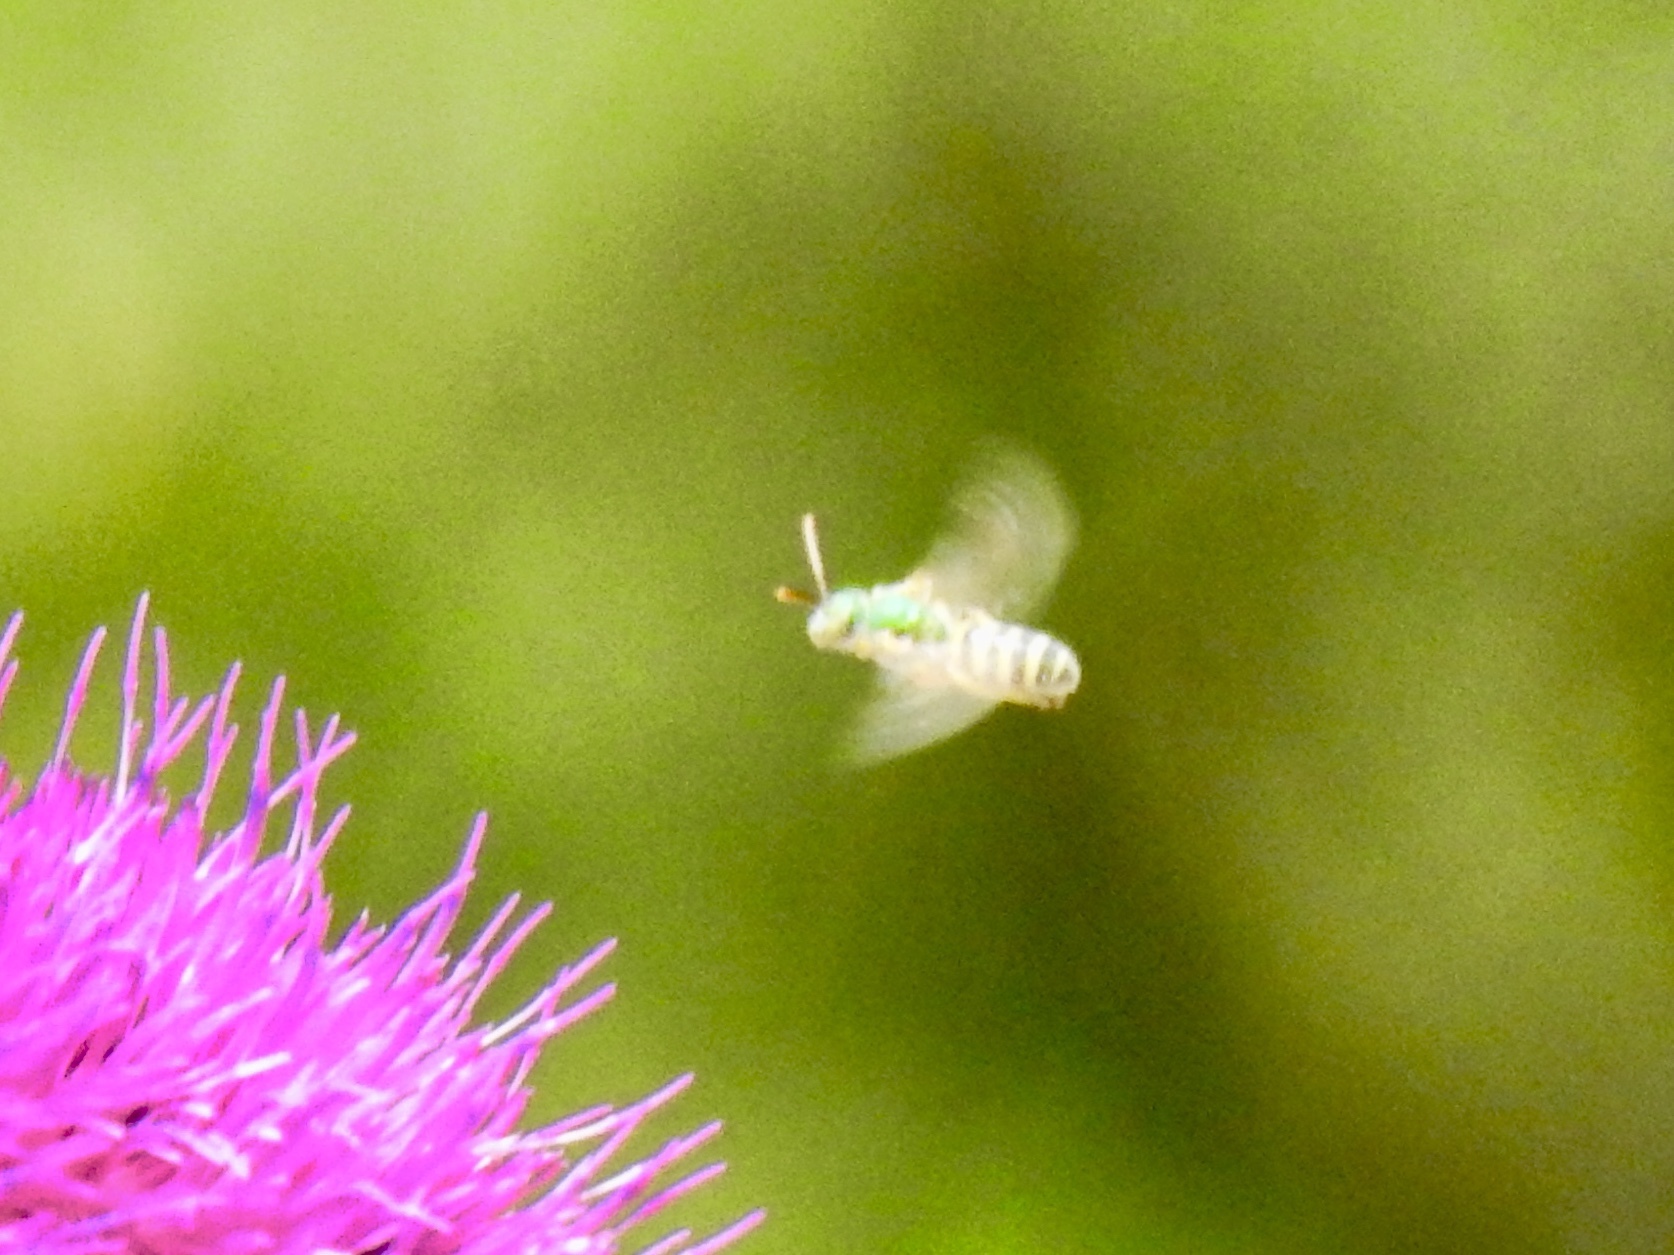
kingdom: Animalia
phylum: Arthropoda
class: Insecta
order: Hymenoptera
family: Halictidae
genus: Agapostemon
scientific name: Agapostemon melliventris
